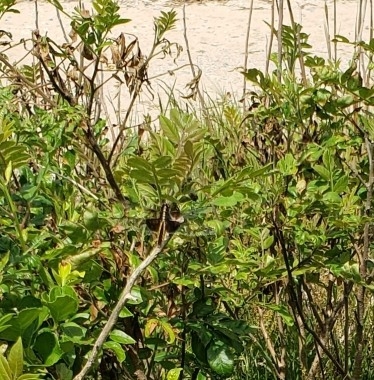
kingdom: Animalia
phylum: Arthropoda
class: Insecta
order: Odonata
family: Libellulidae
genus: Libellula
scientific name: Libellula luctuosa
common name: Widow skimmer
